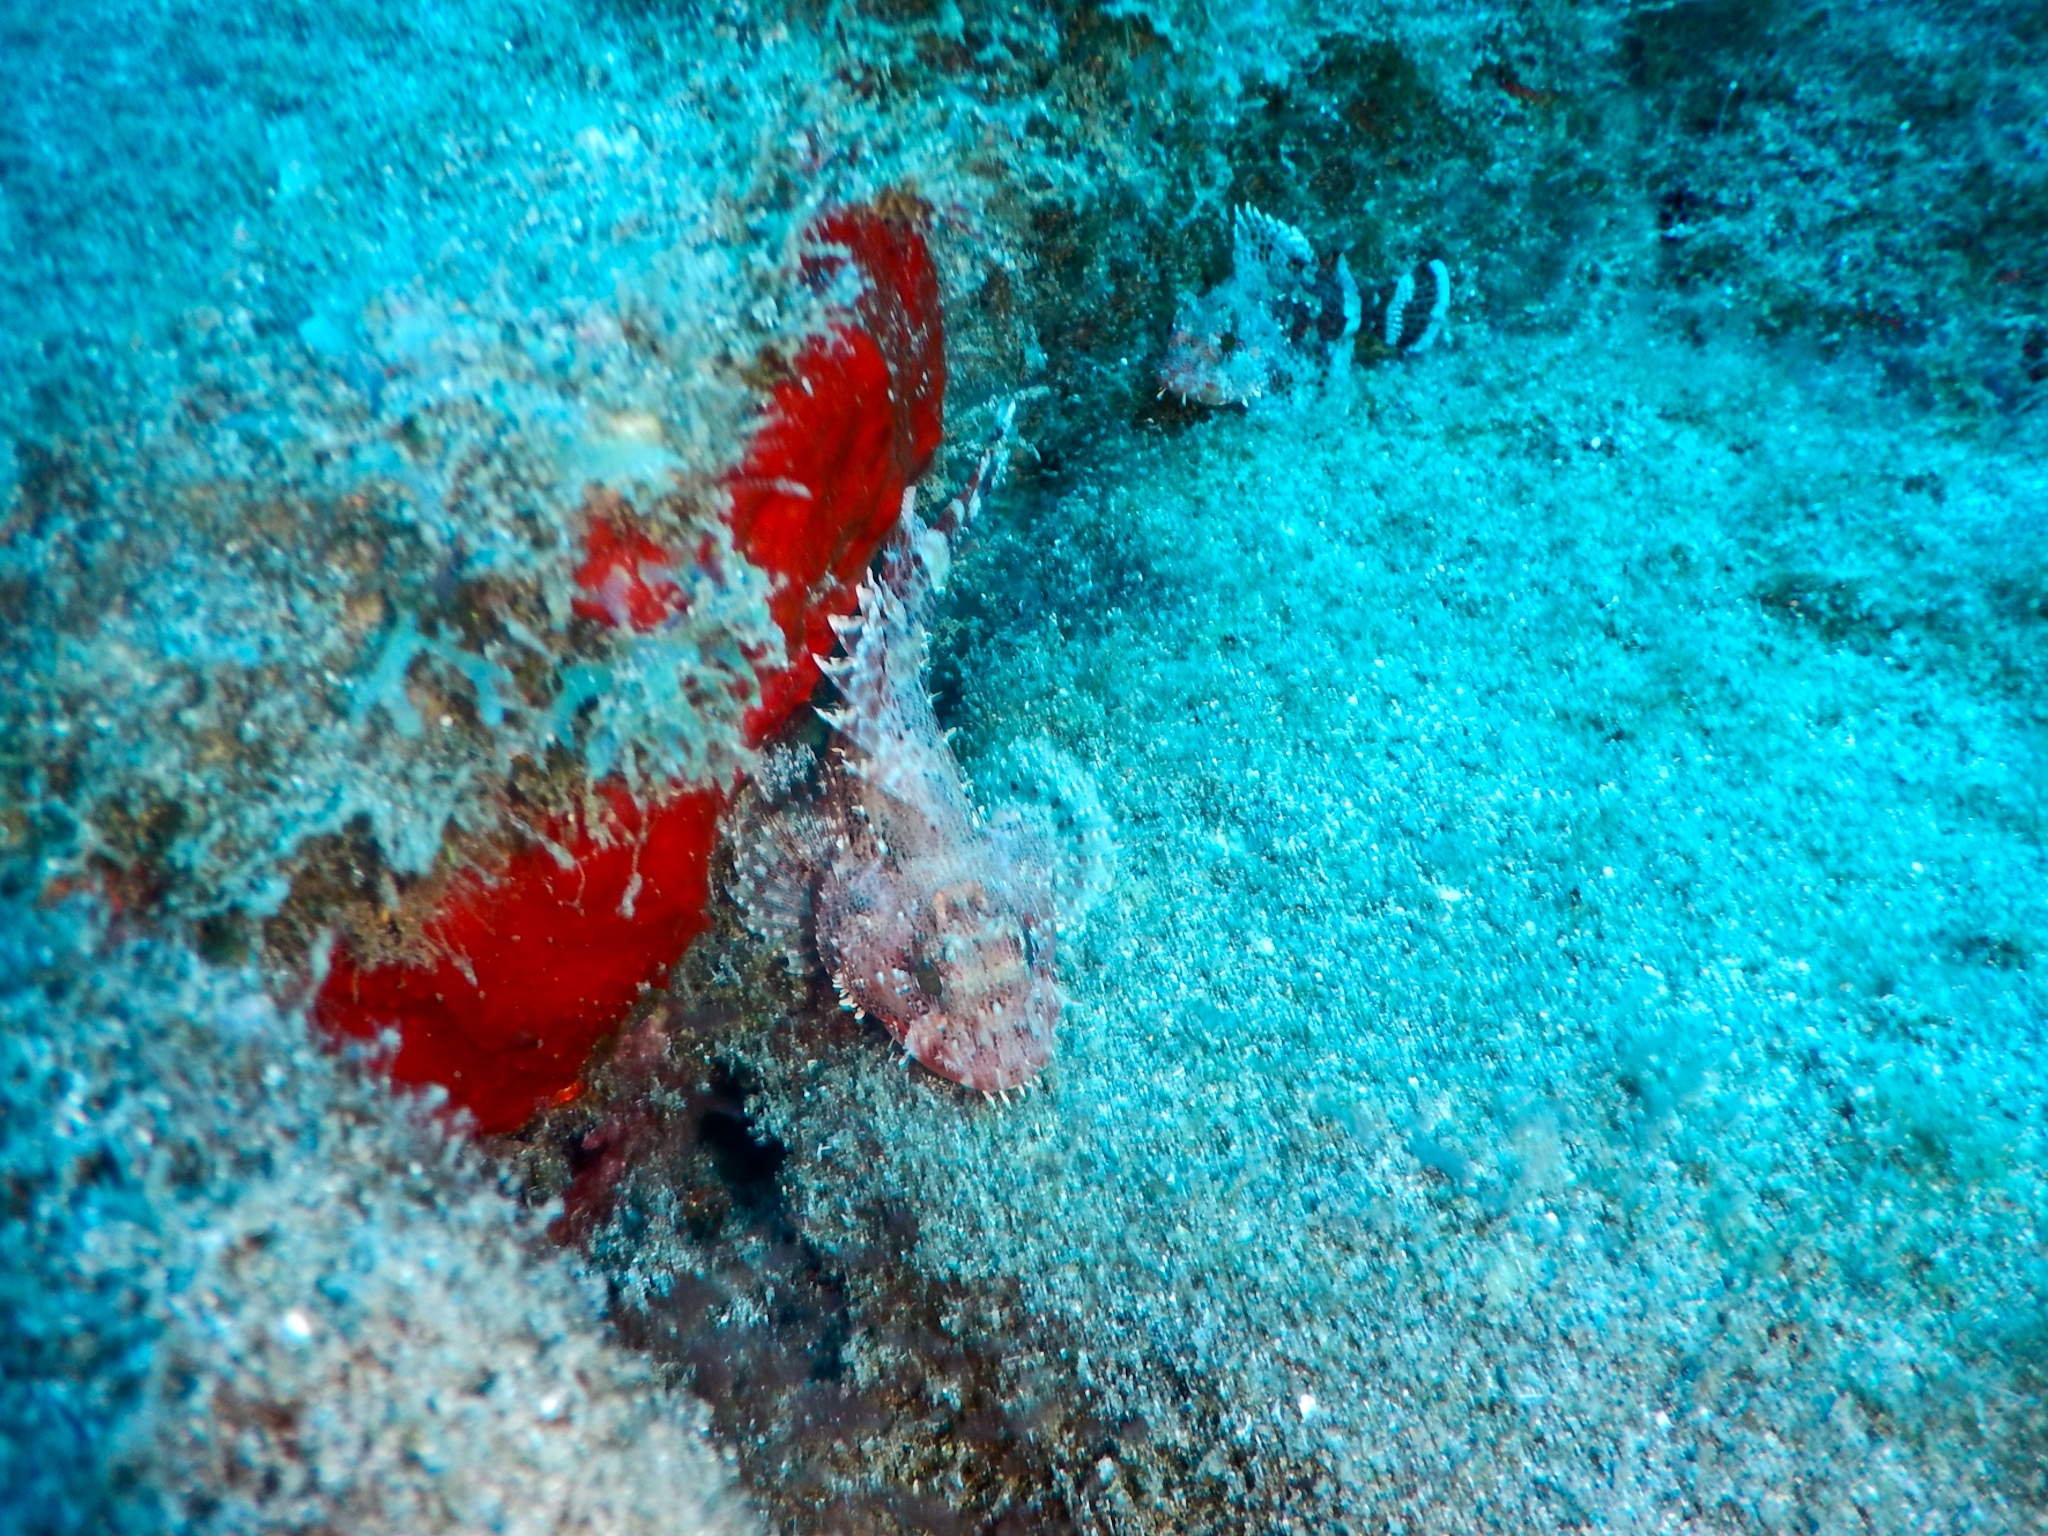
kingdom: Animalia
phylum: Chordata
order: Scorpaeniformes
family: Scorpaenidae
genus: Scorpaena
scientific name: Scorpaena maderensis
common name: Madeira rockfish
